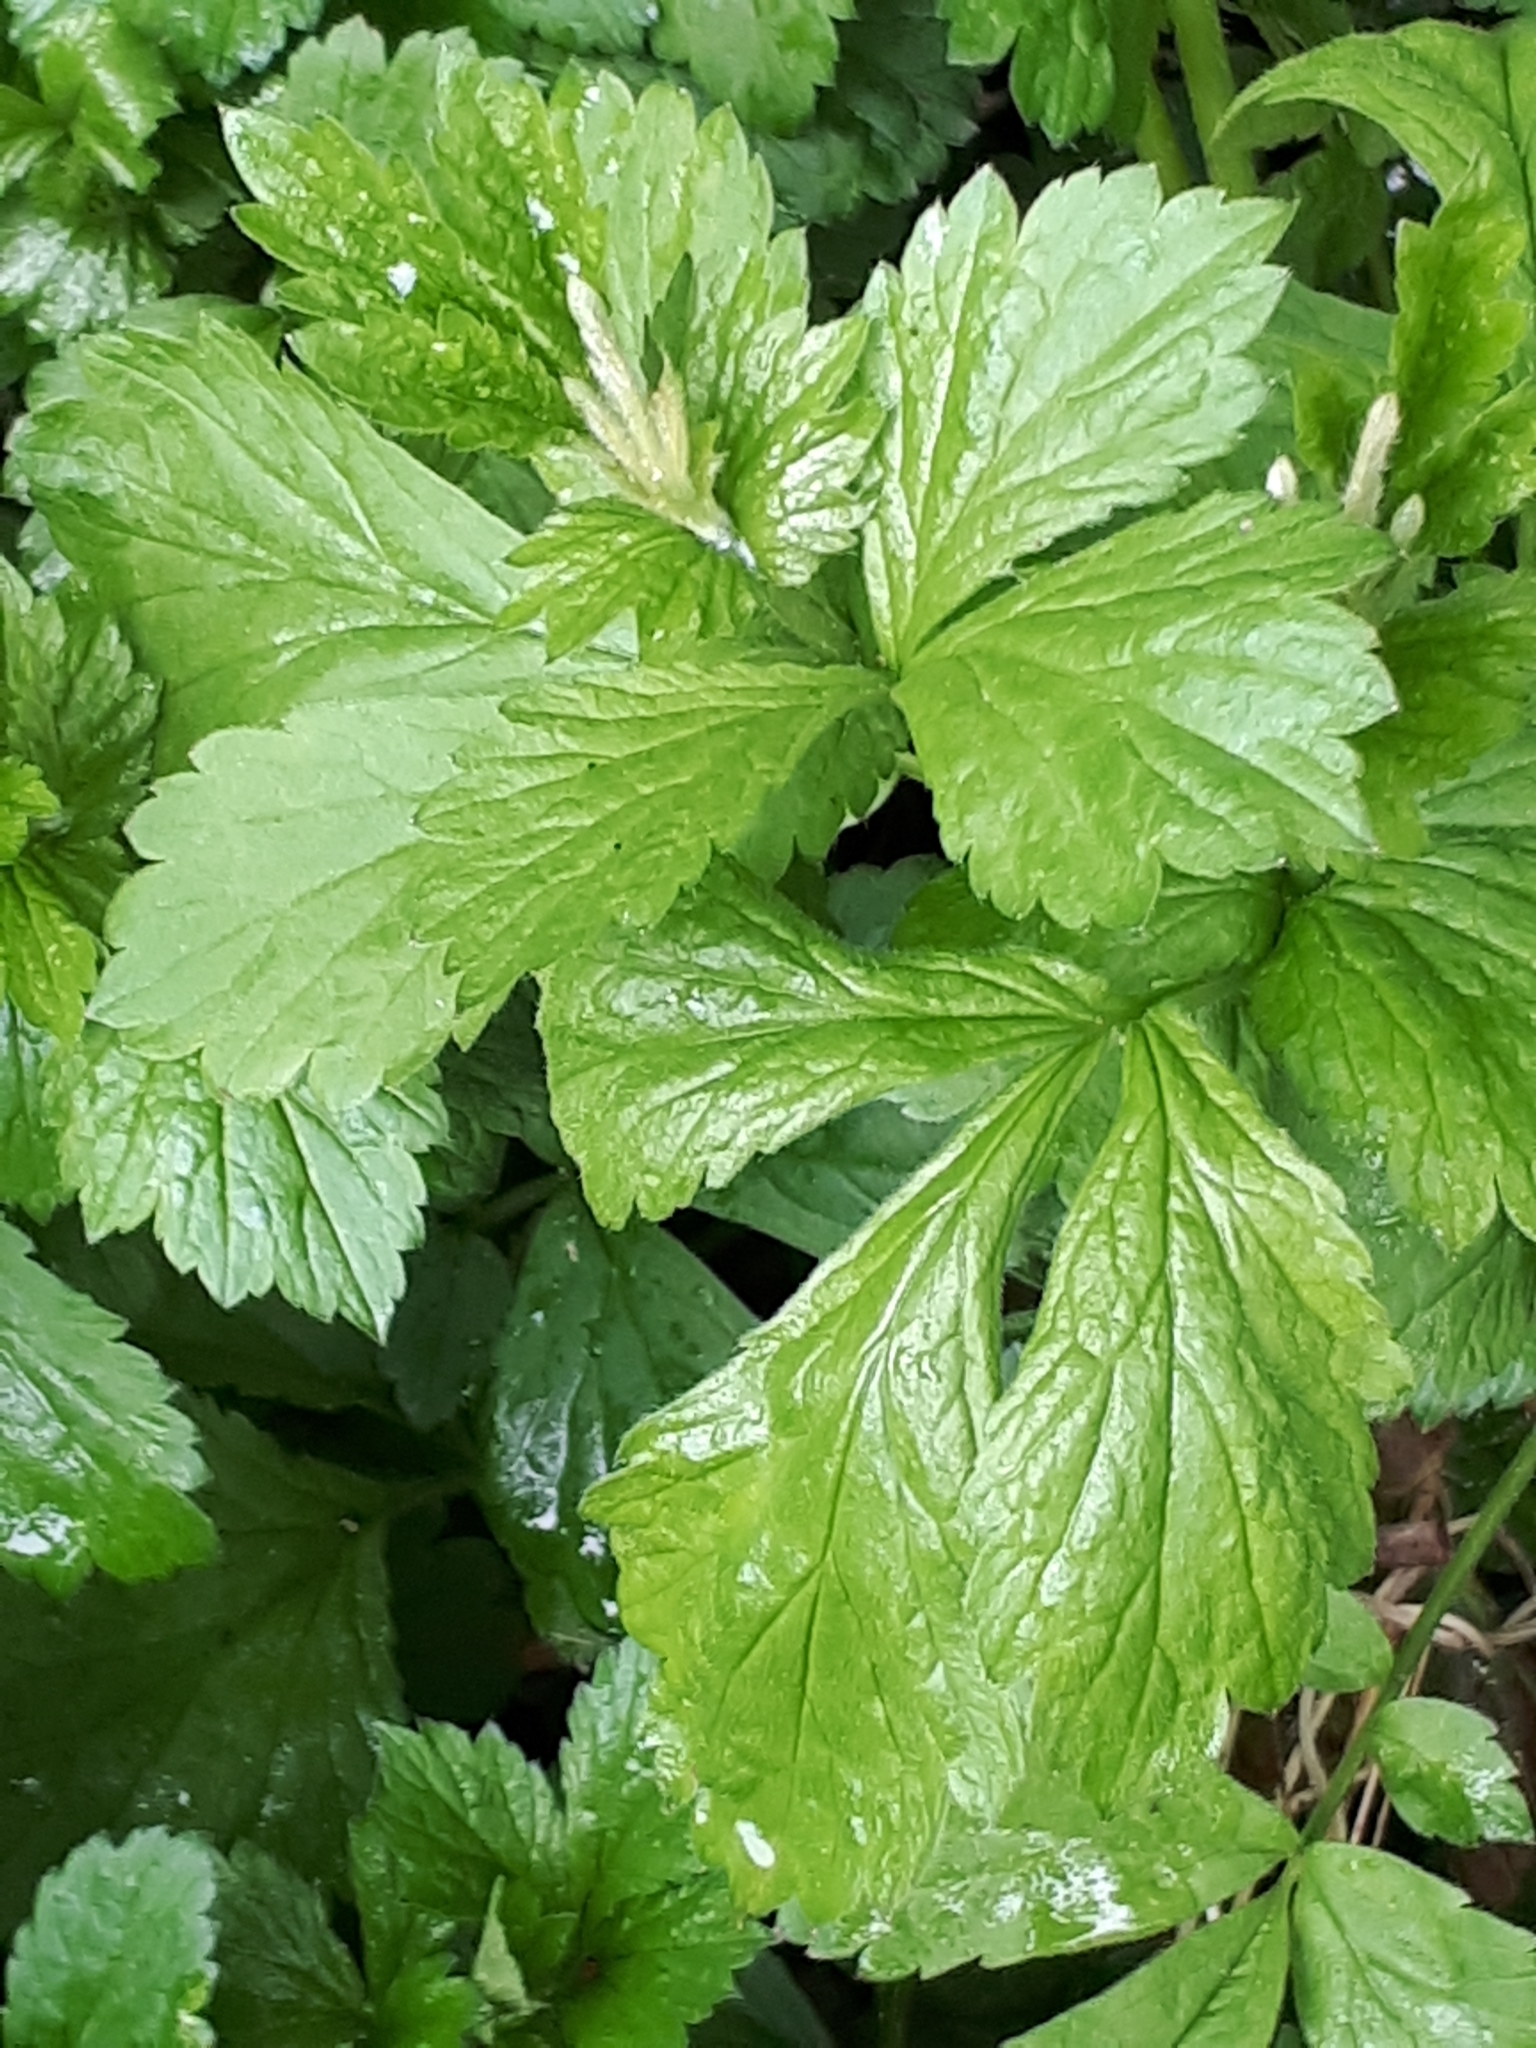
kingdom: Plantae
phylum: Tracheophyta
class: Magnoliopsida
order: Rosales
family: Rosaceae
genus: Geum
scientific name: Geum urbanum
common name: Wood avens
